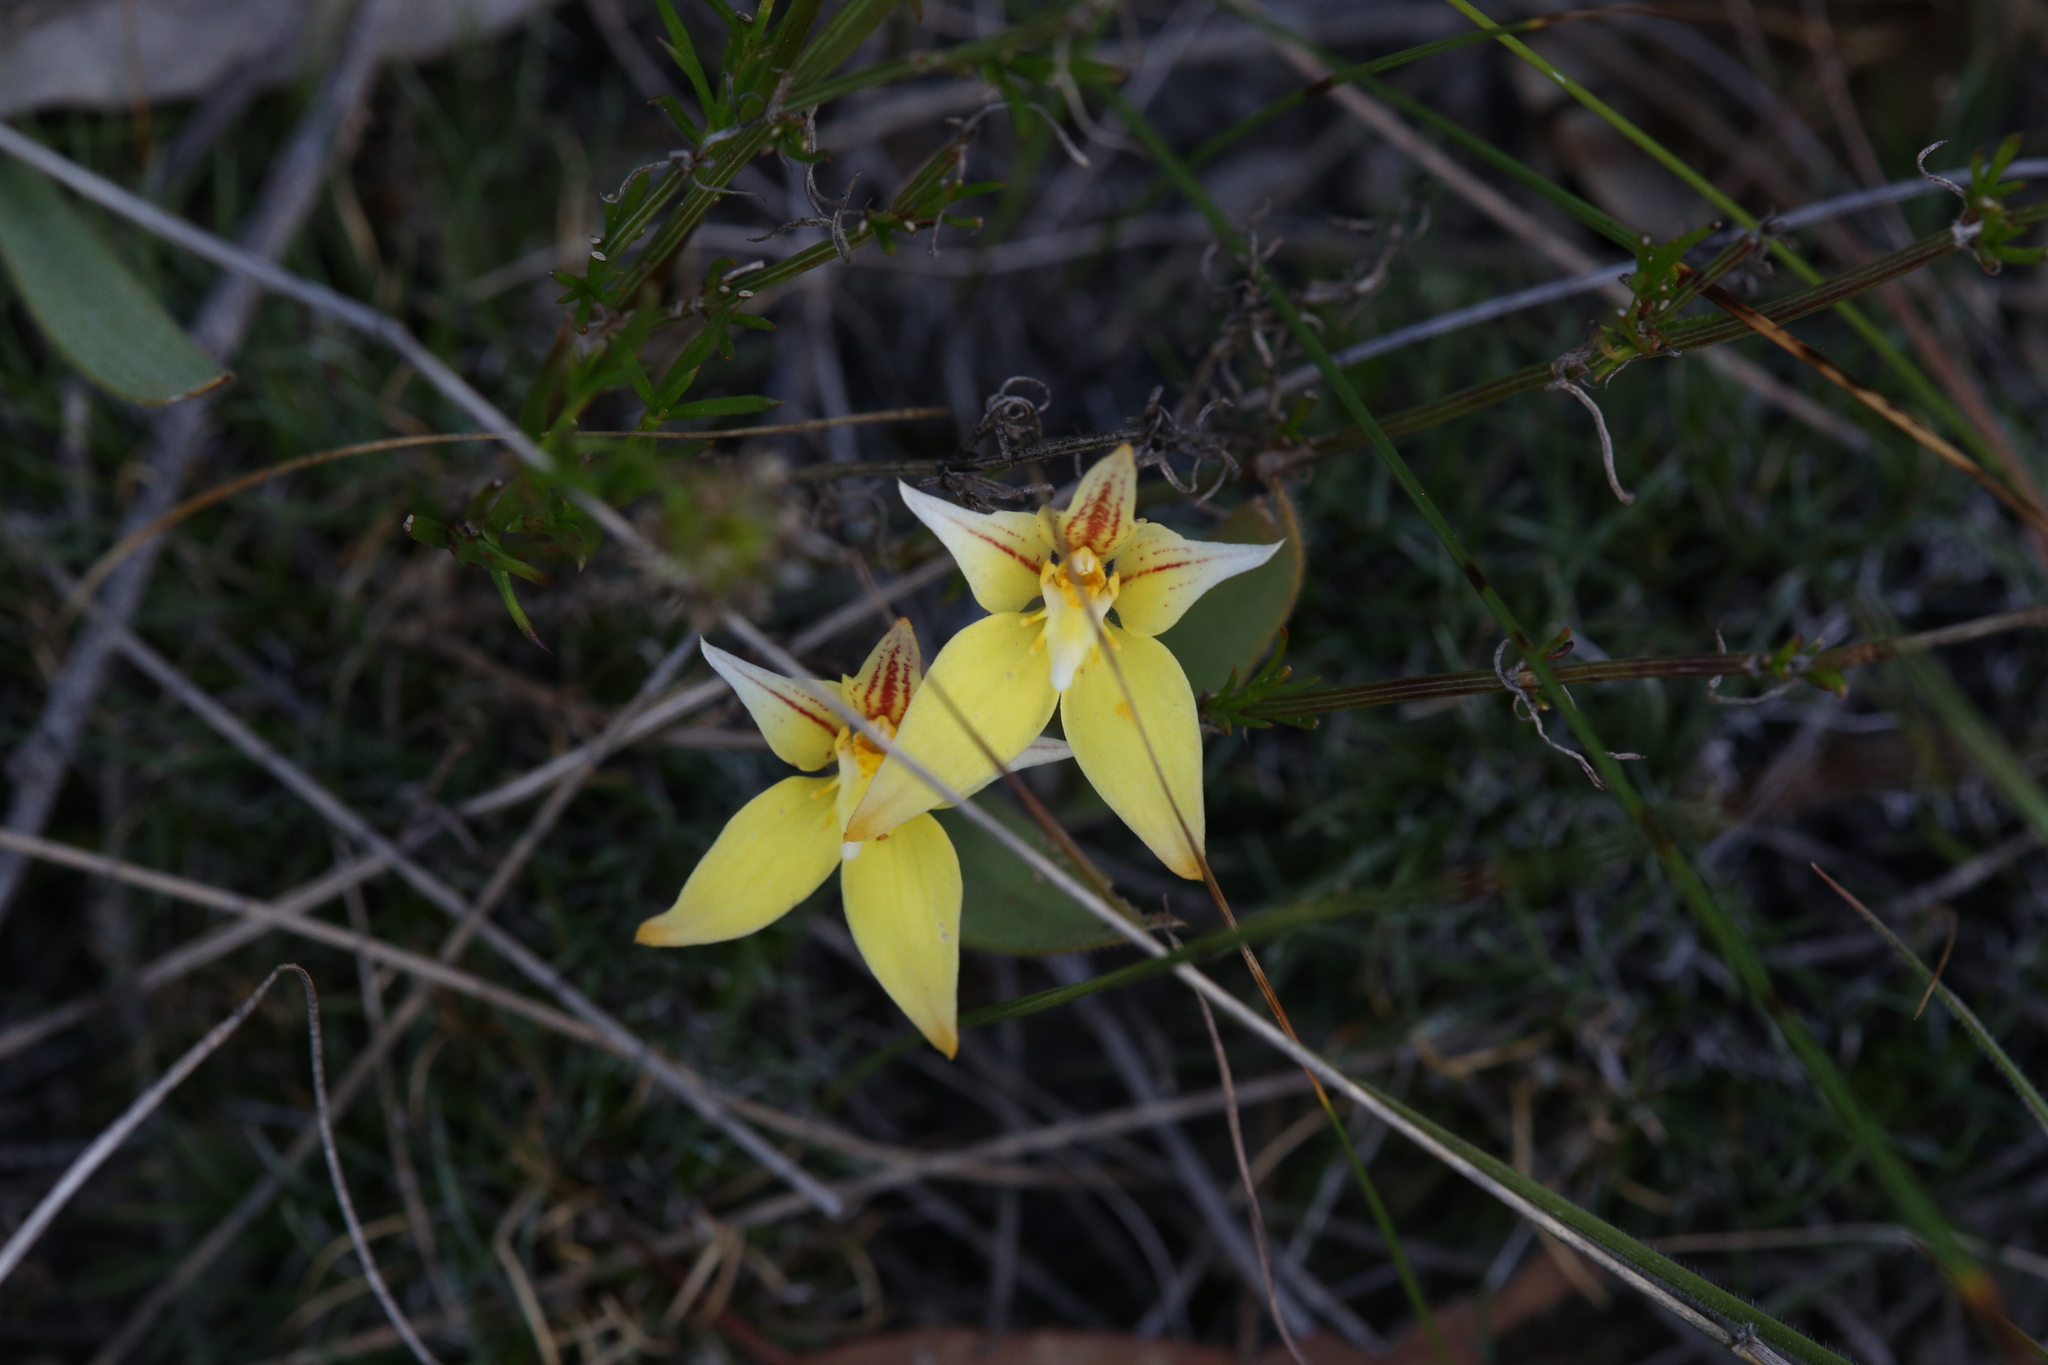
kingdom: Plantae
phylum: Tracheophyta
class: Liliopsida
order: Asparagales
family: Orchidaceae
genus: Caladenia
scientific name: Caladenia flava
